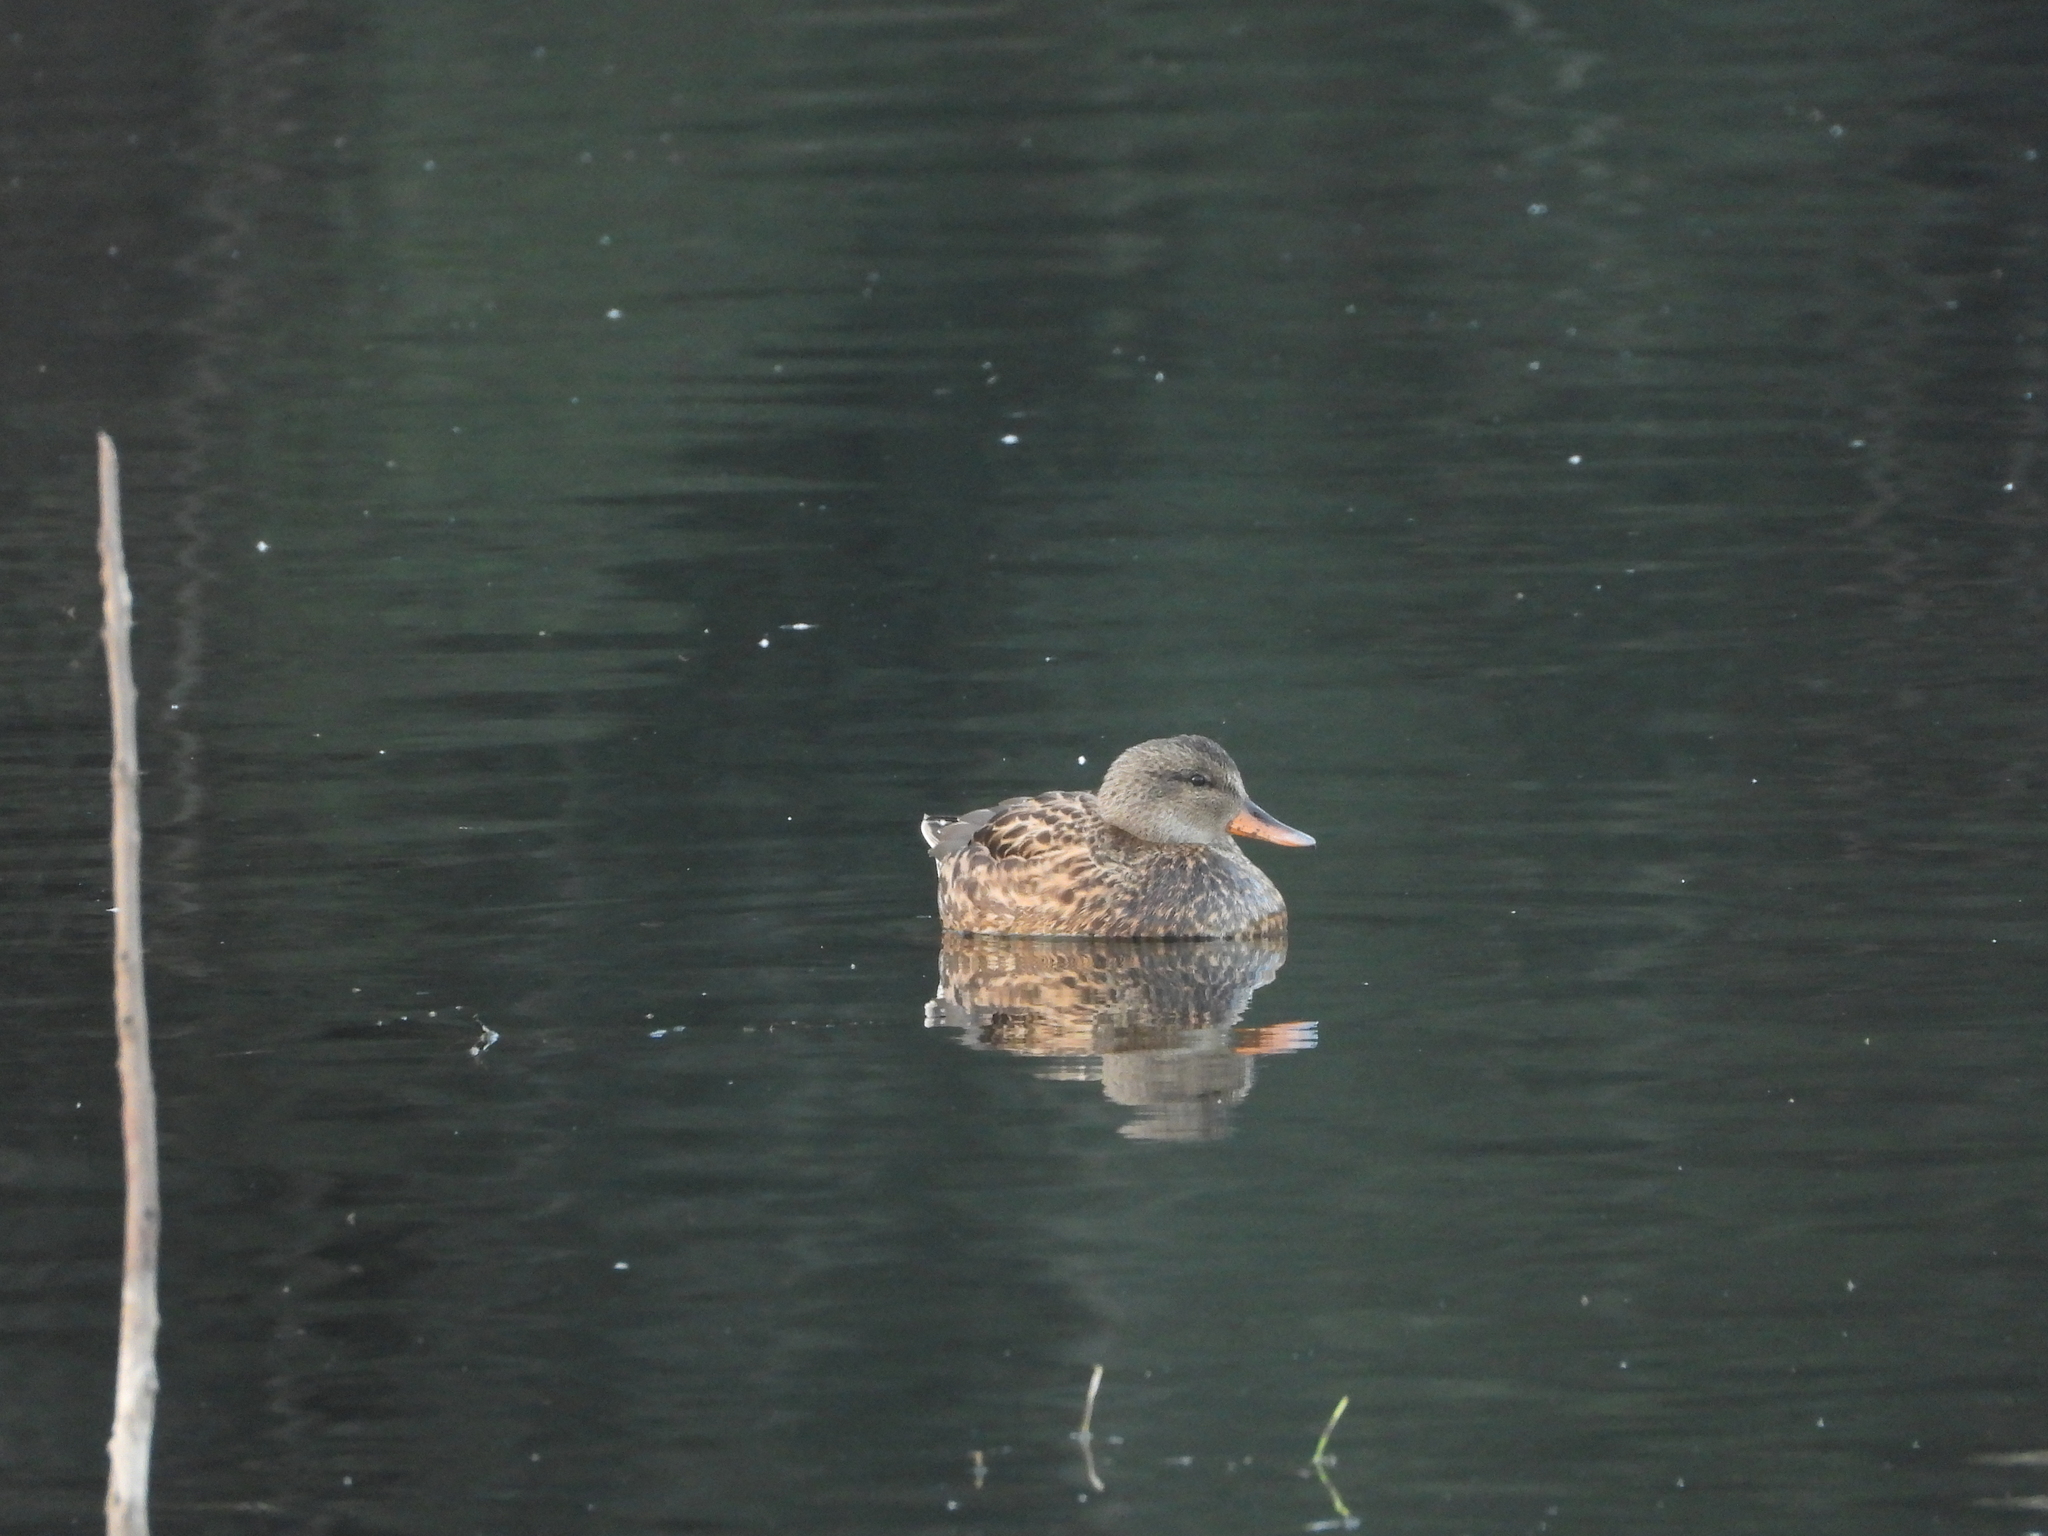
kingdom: Animalia
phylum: Chordata
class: Aves
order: Anseriformes
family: Anatidae
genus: Mareca
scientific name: Mareca strepera
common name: Gadwall
